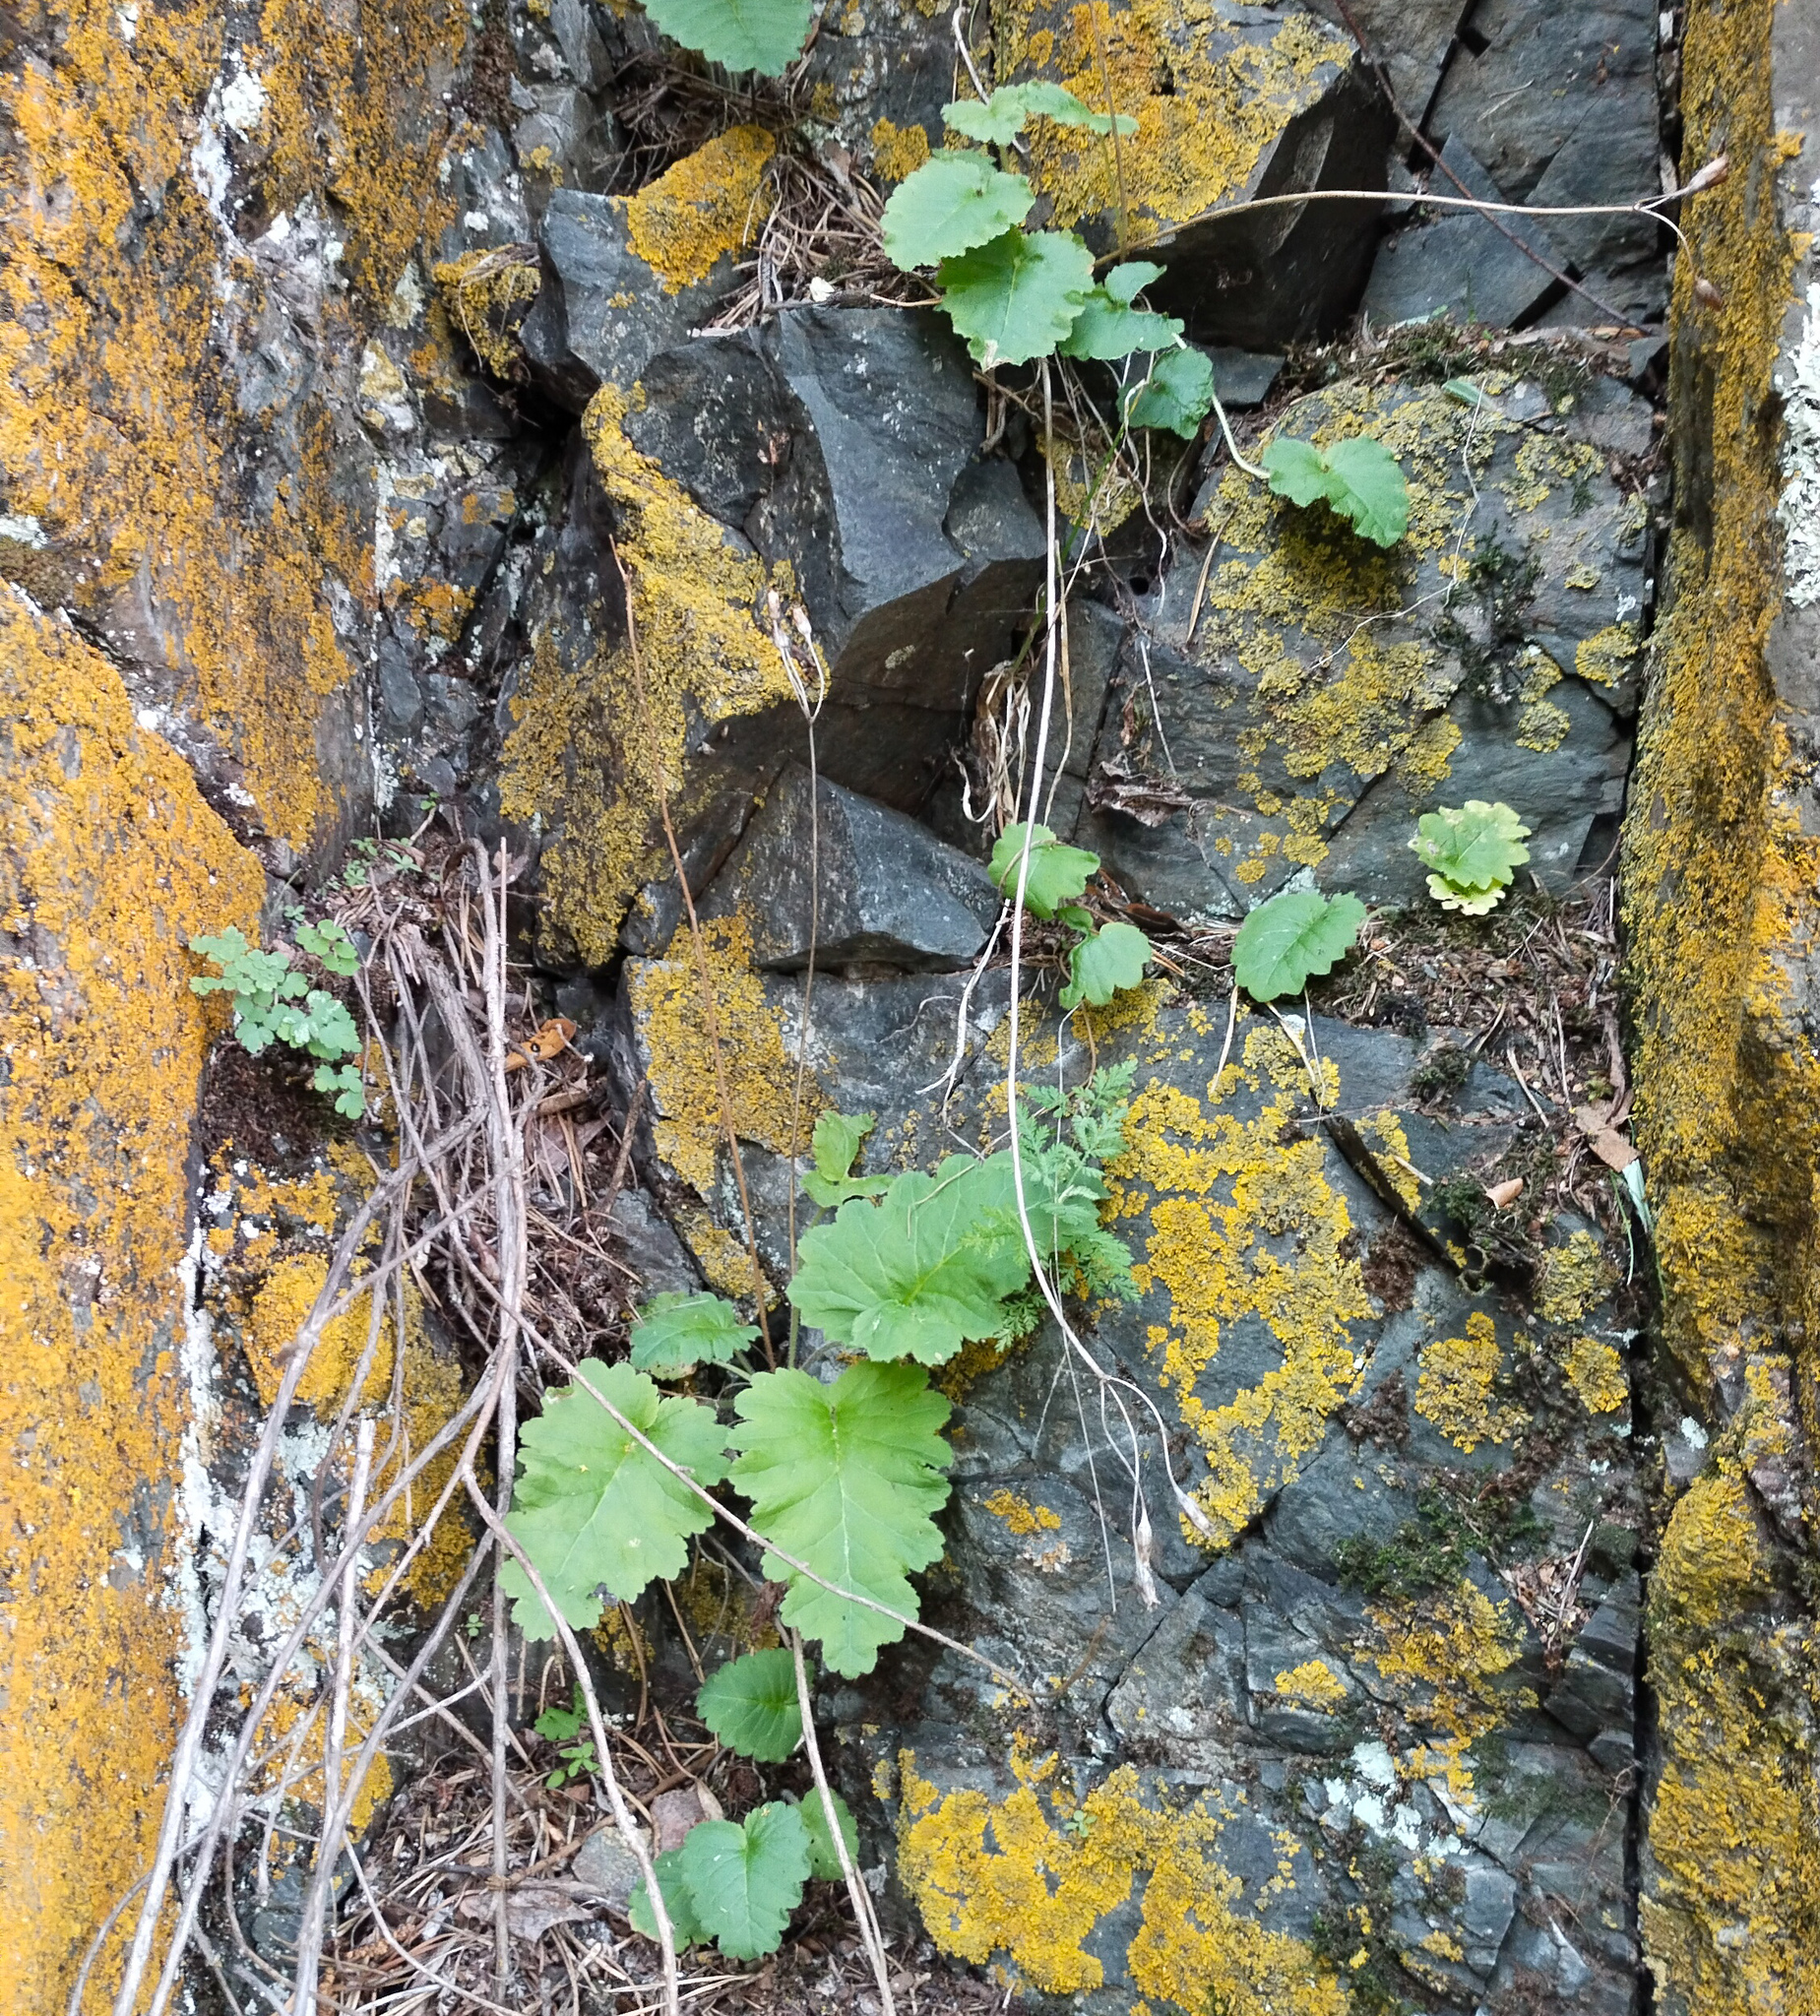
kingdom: Plantae
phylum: Tracheophyta
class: Magnoliopsida
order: Ericales
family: Primulaceae
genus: Primula
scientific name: Primula cortusoides
